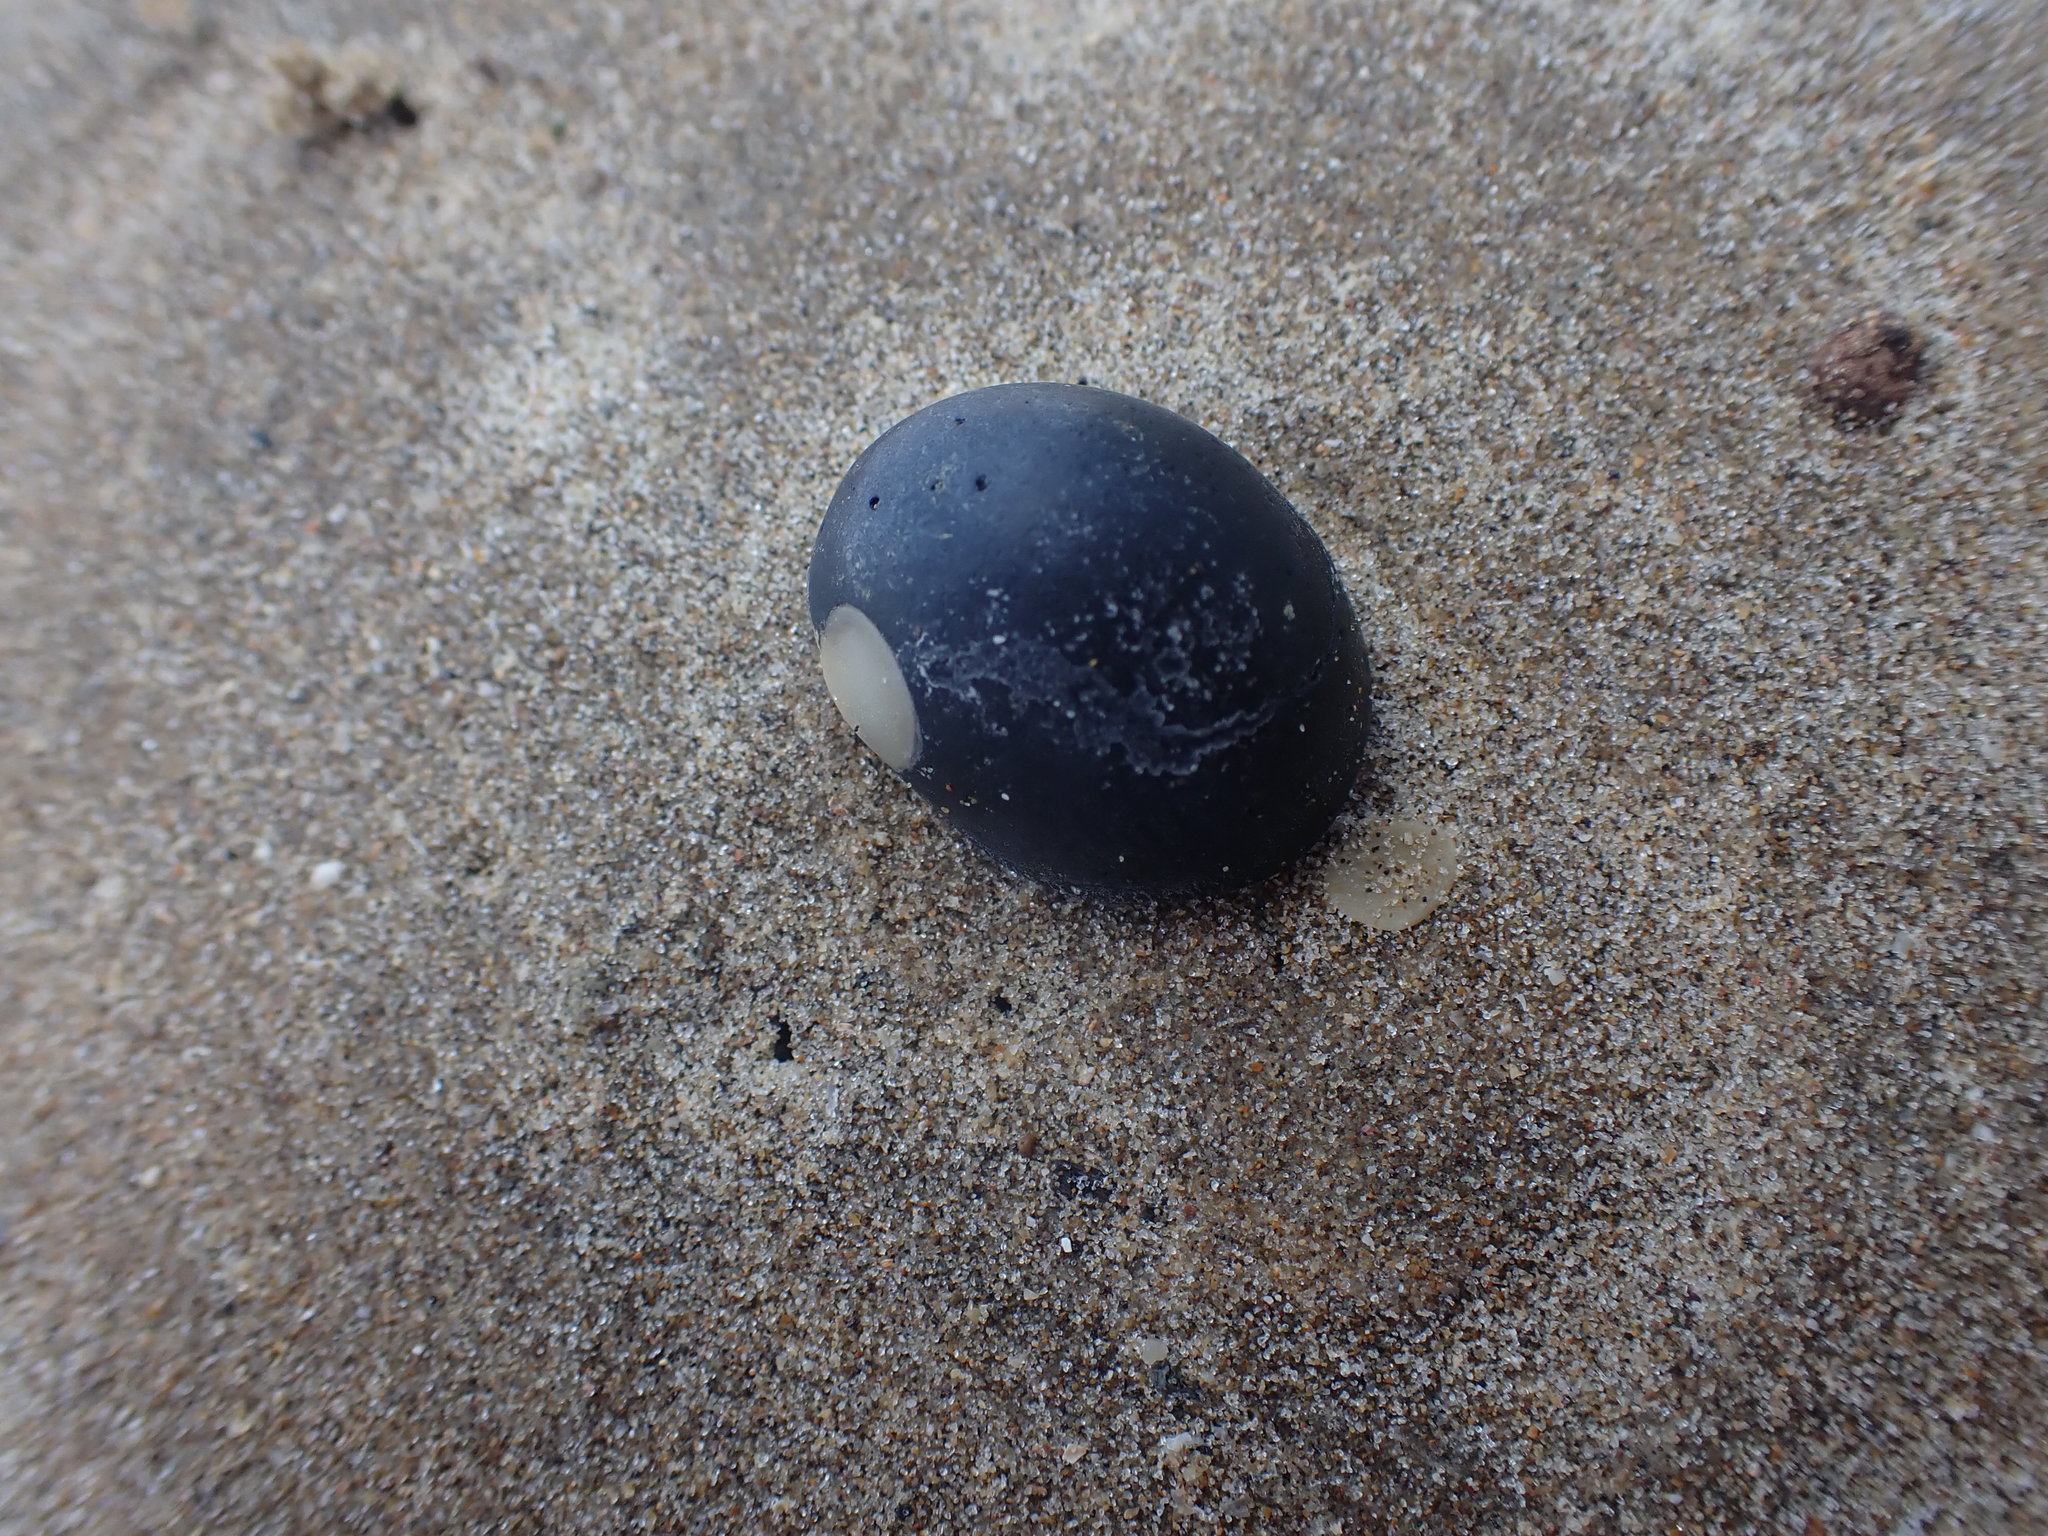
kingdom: Animalia
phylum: Mollusca
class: Gastropoda
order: Cycloneritida
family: Neritidae
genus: Nerita
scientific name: Nerita melanotragus
